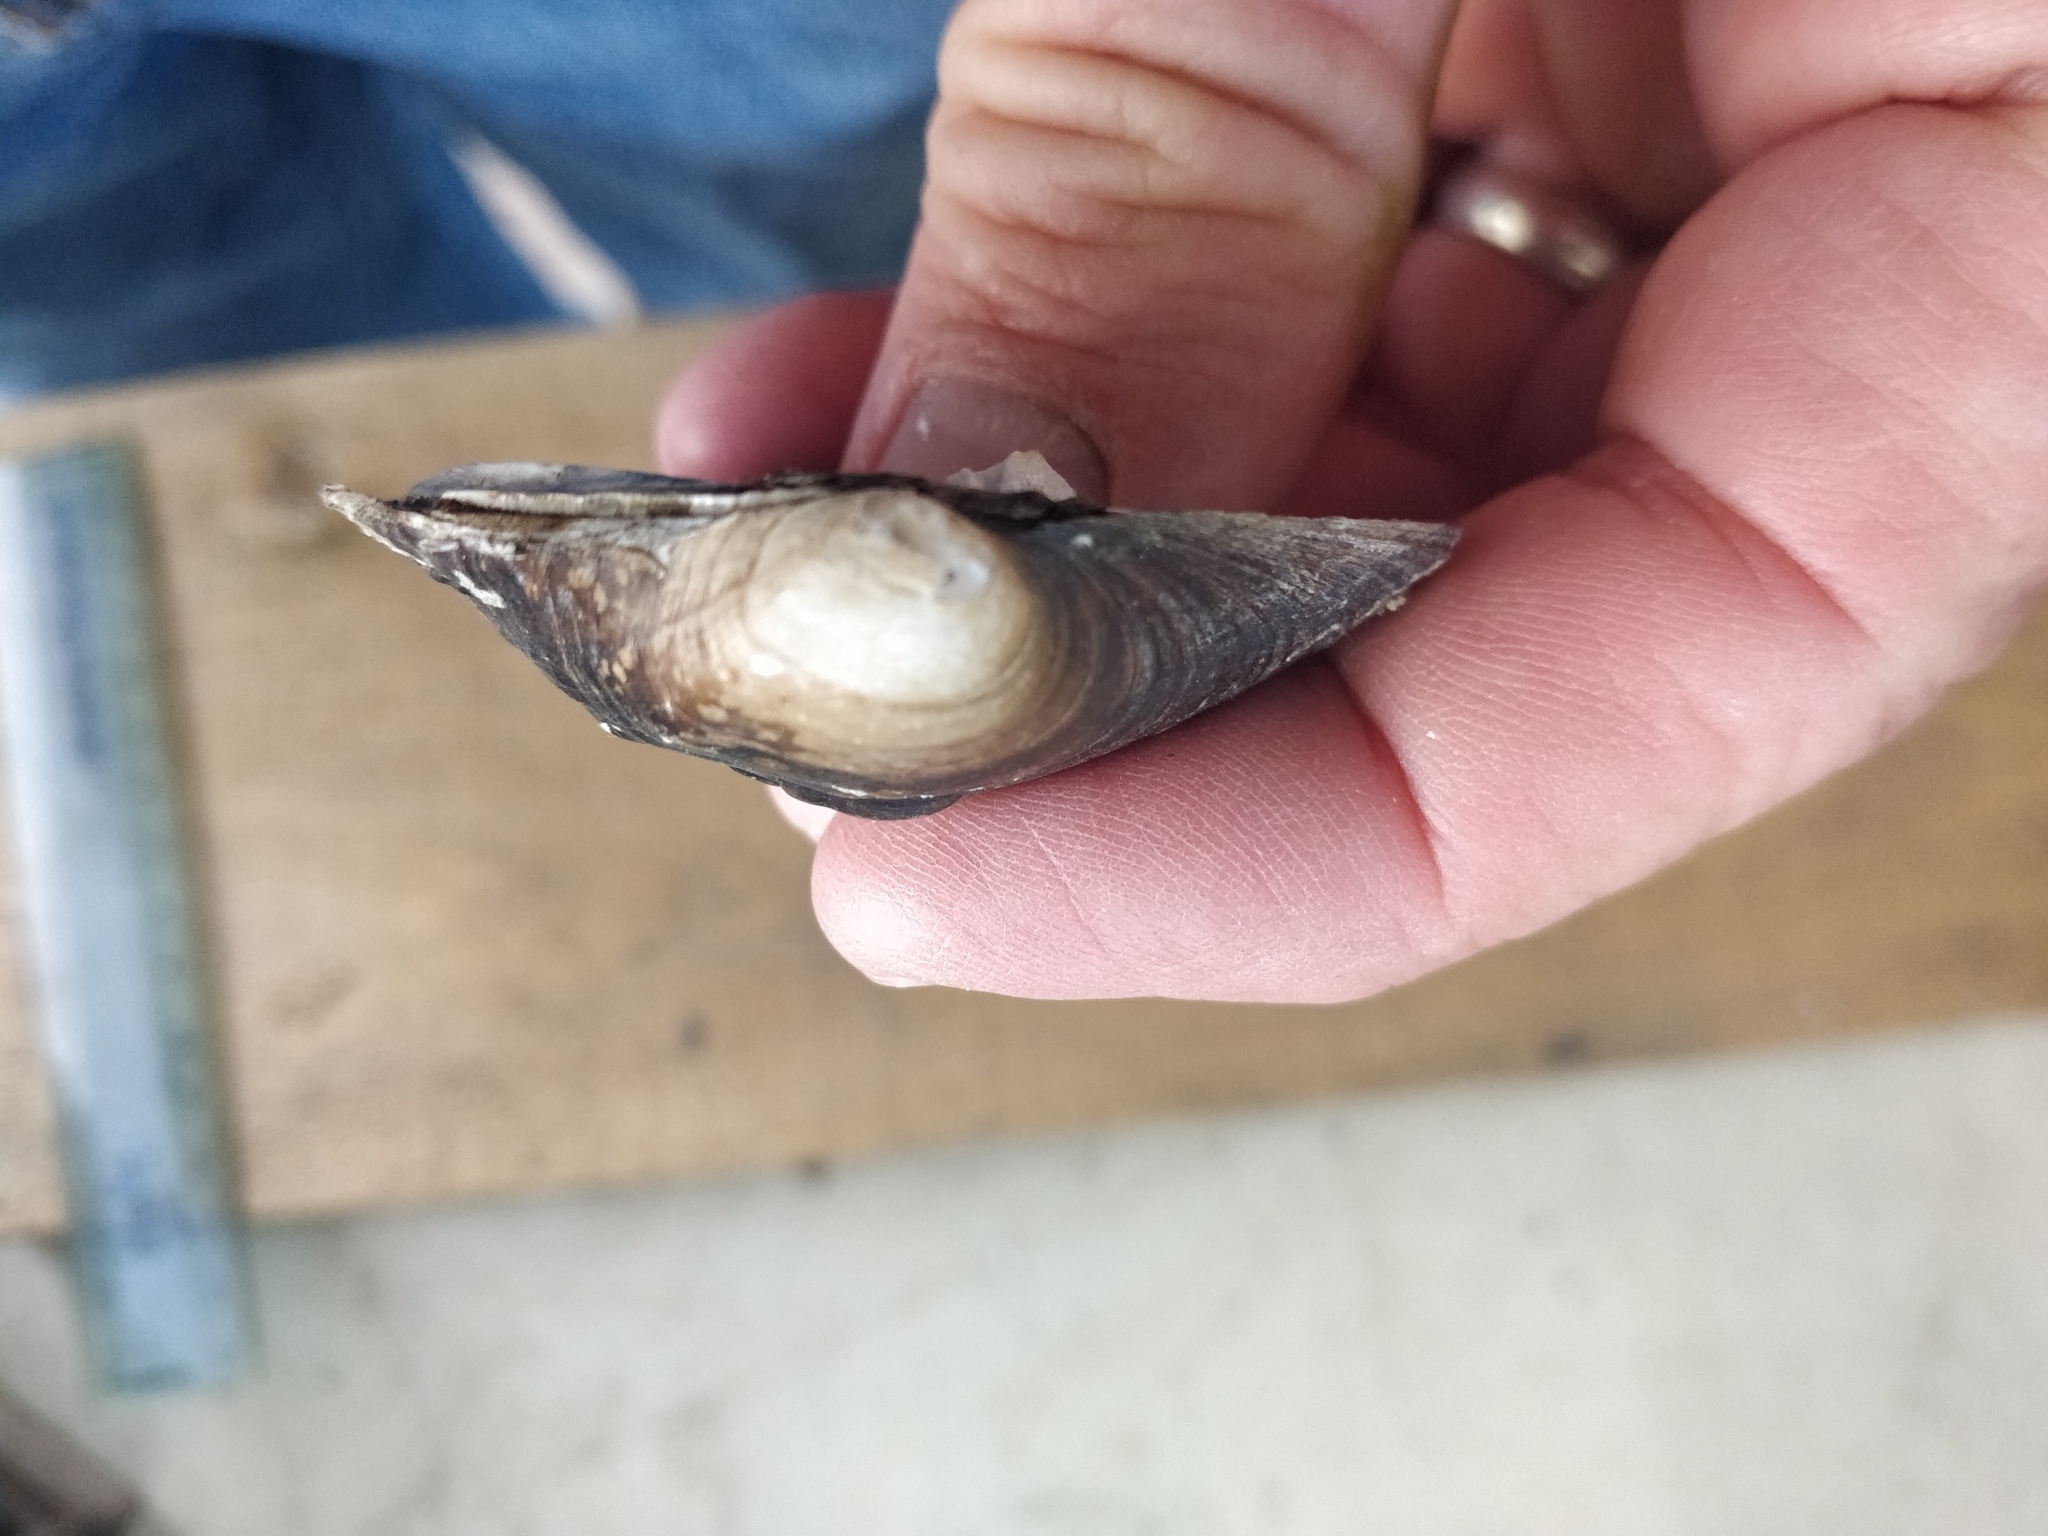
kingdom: Animalia
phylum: Mollusca
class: Bivalvia
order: Unionida
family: Unionidae
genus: Cyclonaias
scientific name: Cyclonaias pustulosa
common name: Pimpleback
